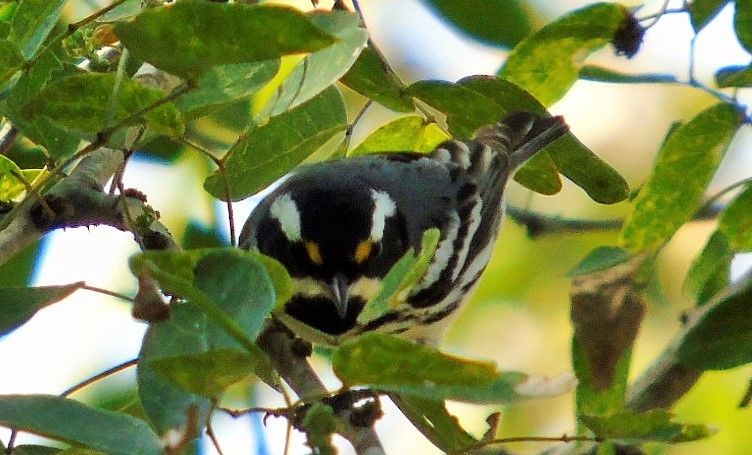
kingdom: Animalia
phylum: Chordata
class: Aves
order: Passeriformes
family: Parulidae
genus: Setophaga
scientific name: Setophaga nigrescens
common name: Black-throated gray warbler
